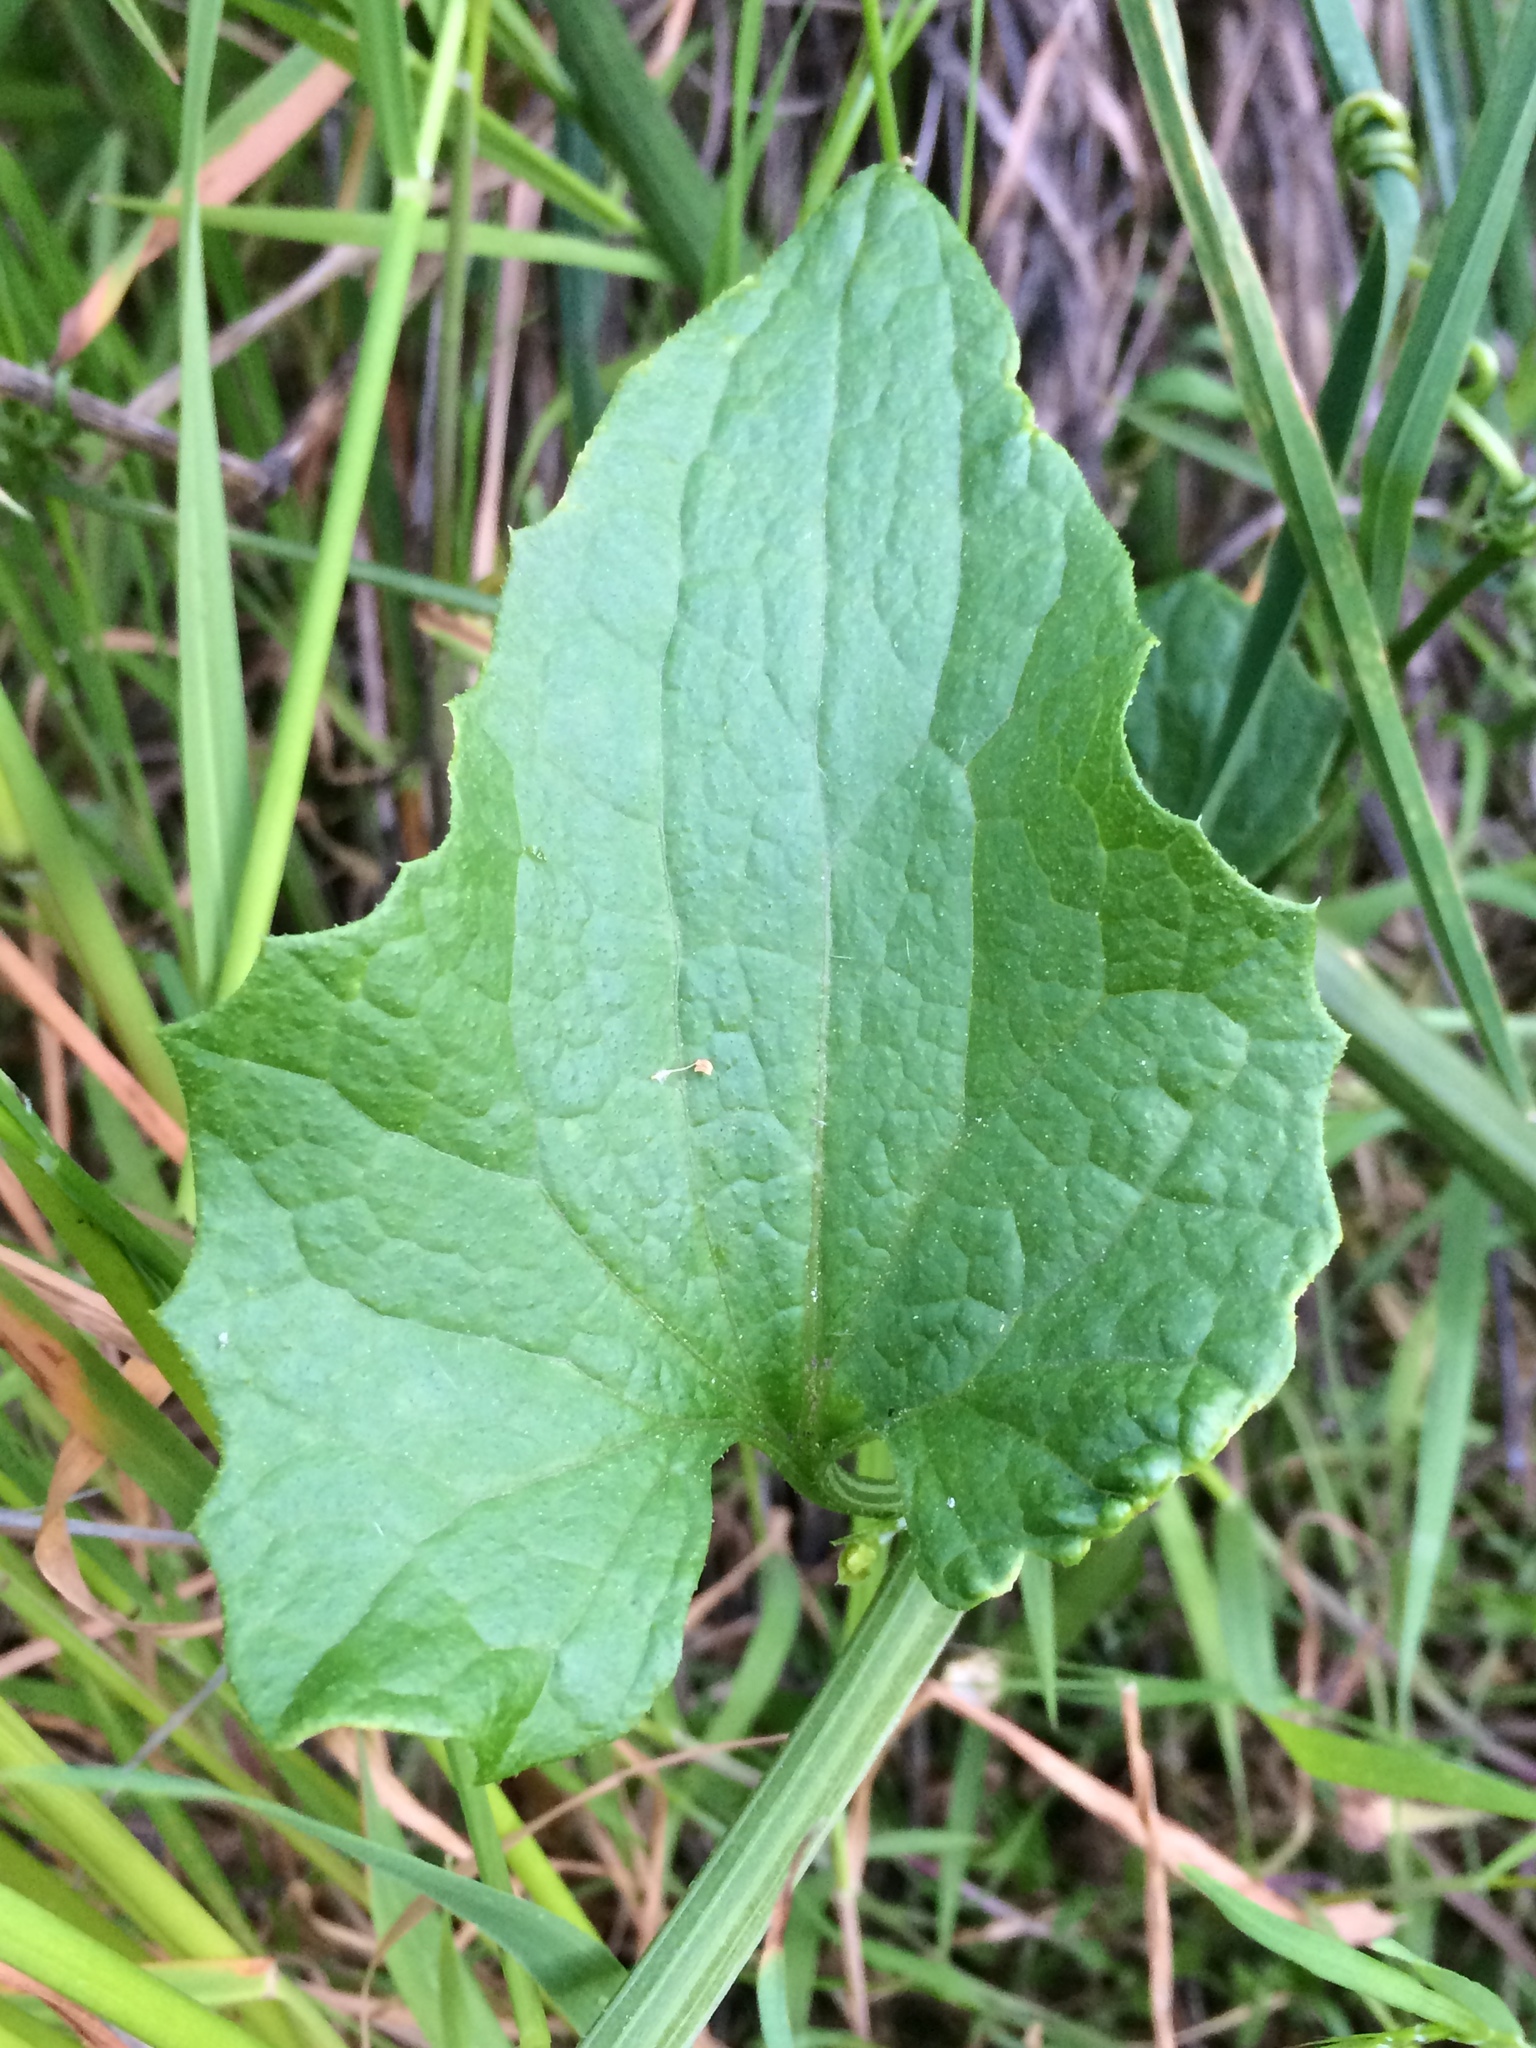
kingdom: Plantae
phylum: Tracheophyta
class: Magnoliopsida
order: Cucurbitales
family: Cucurbitaceae
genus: Marah
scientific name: Marah oregana
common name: Coastal manroot
